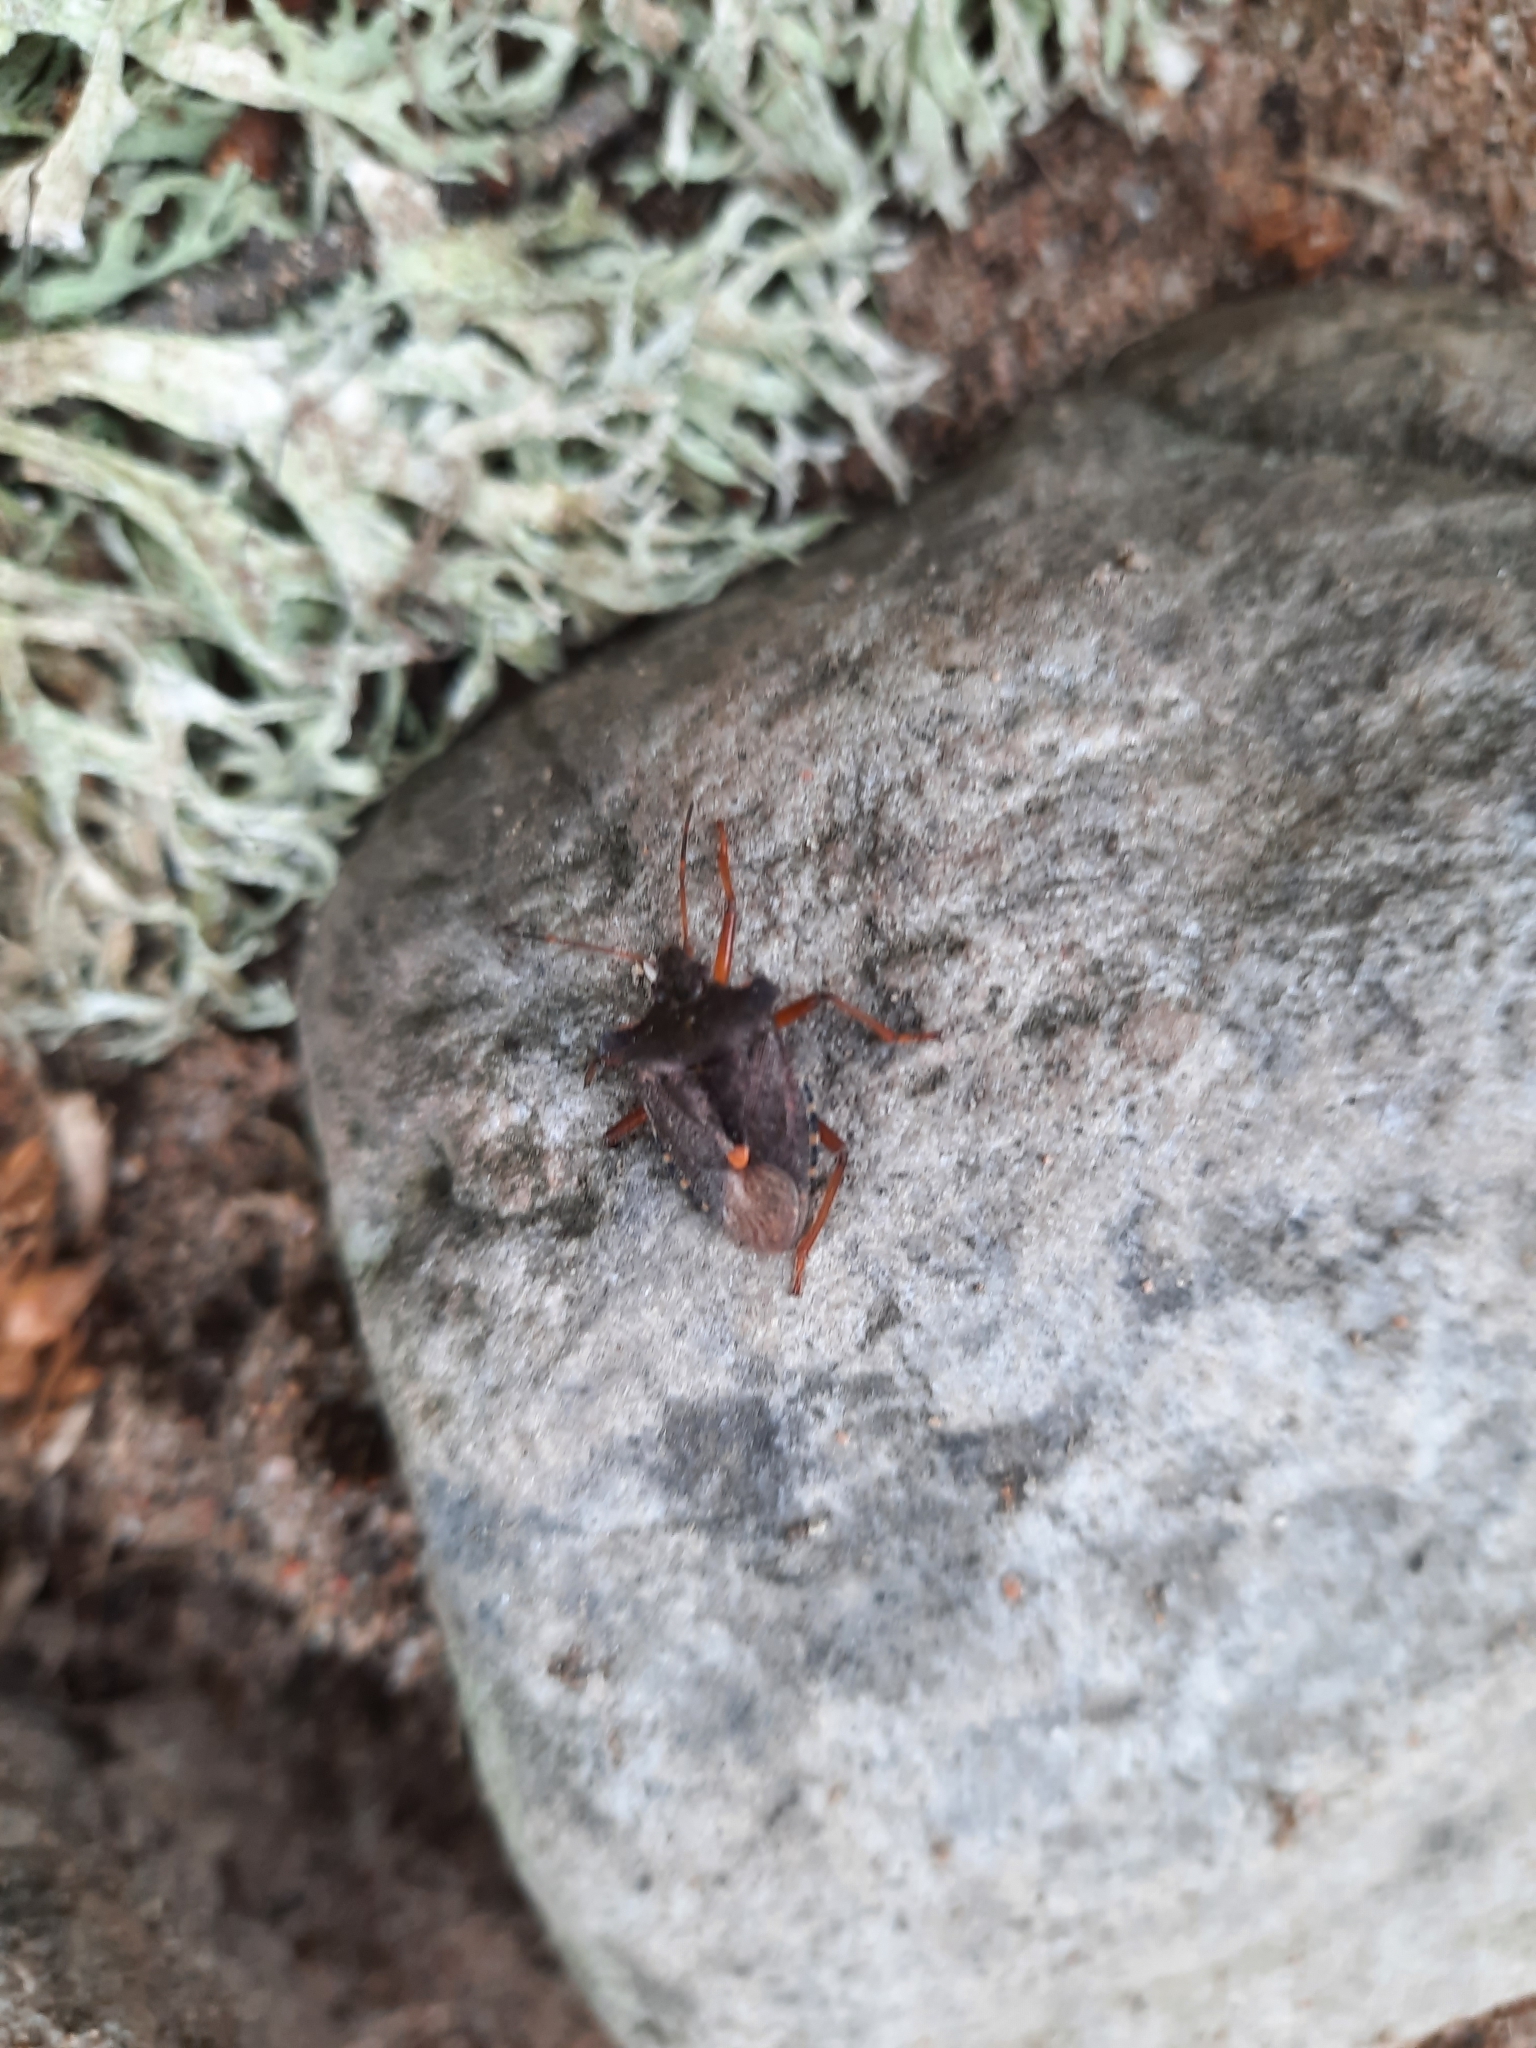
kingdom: Animalia
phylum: Arthropoda
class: Insecta
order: Hemiptera
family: Pentatomidae
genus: Pentatoma
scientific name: Pentatoma rufipes
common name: Forest bug
